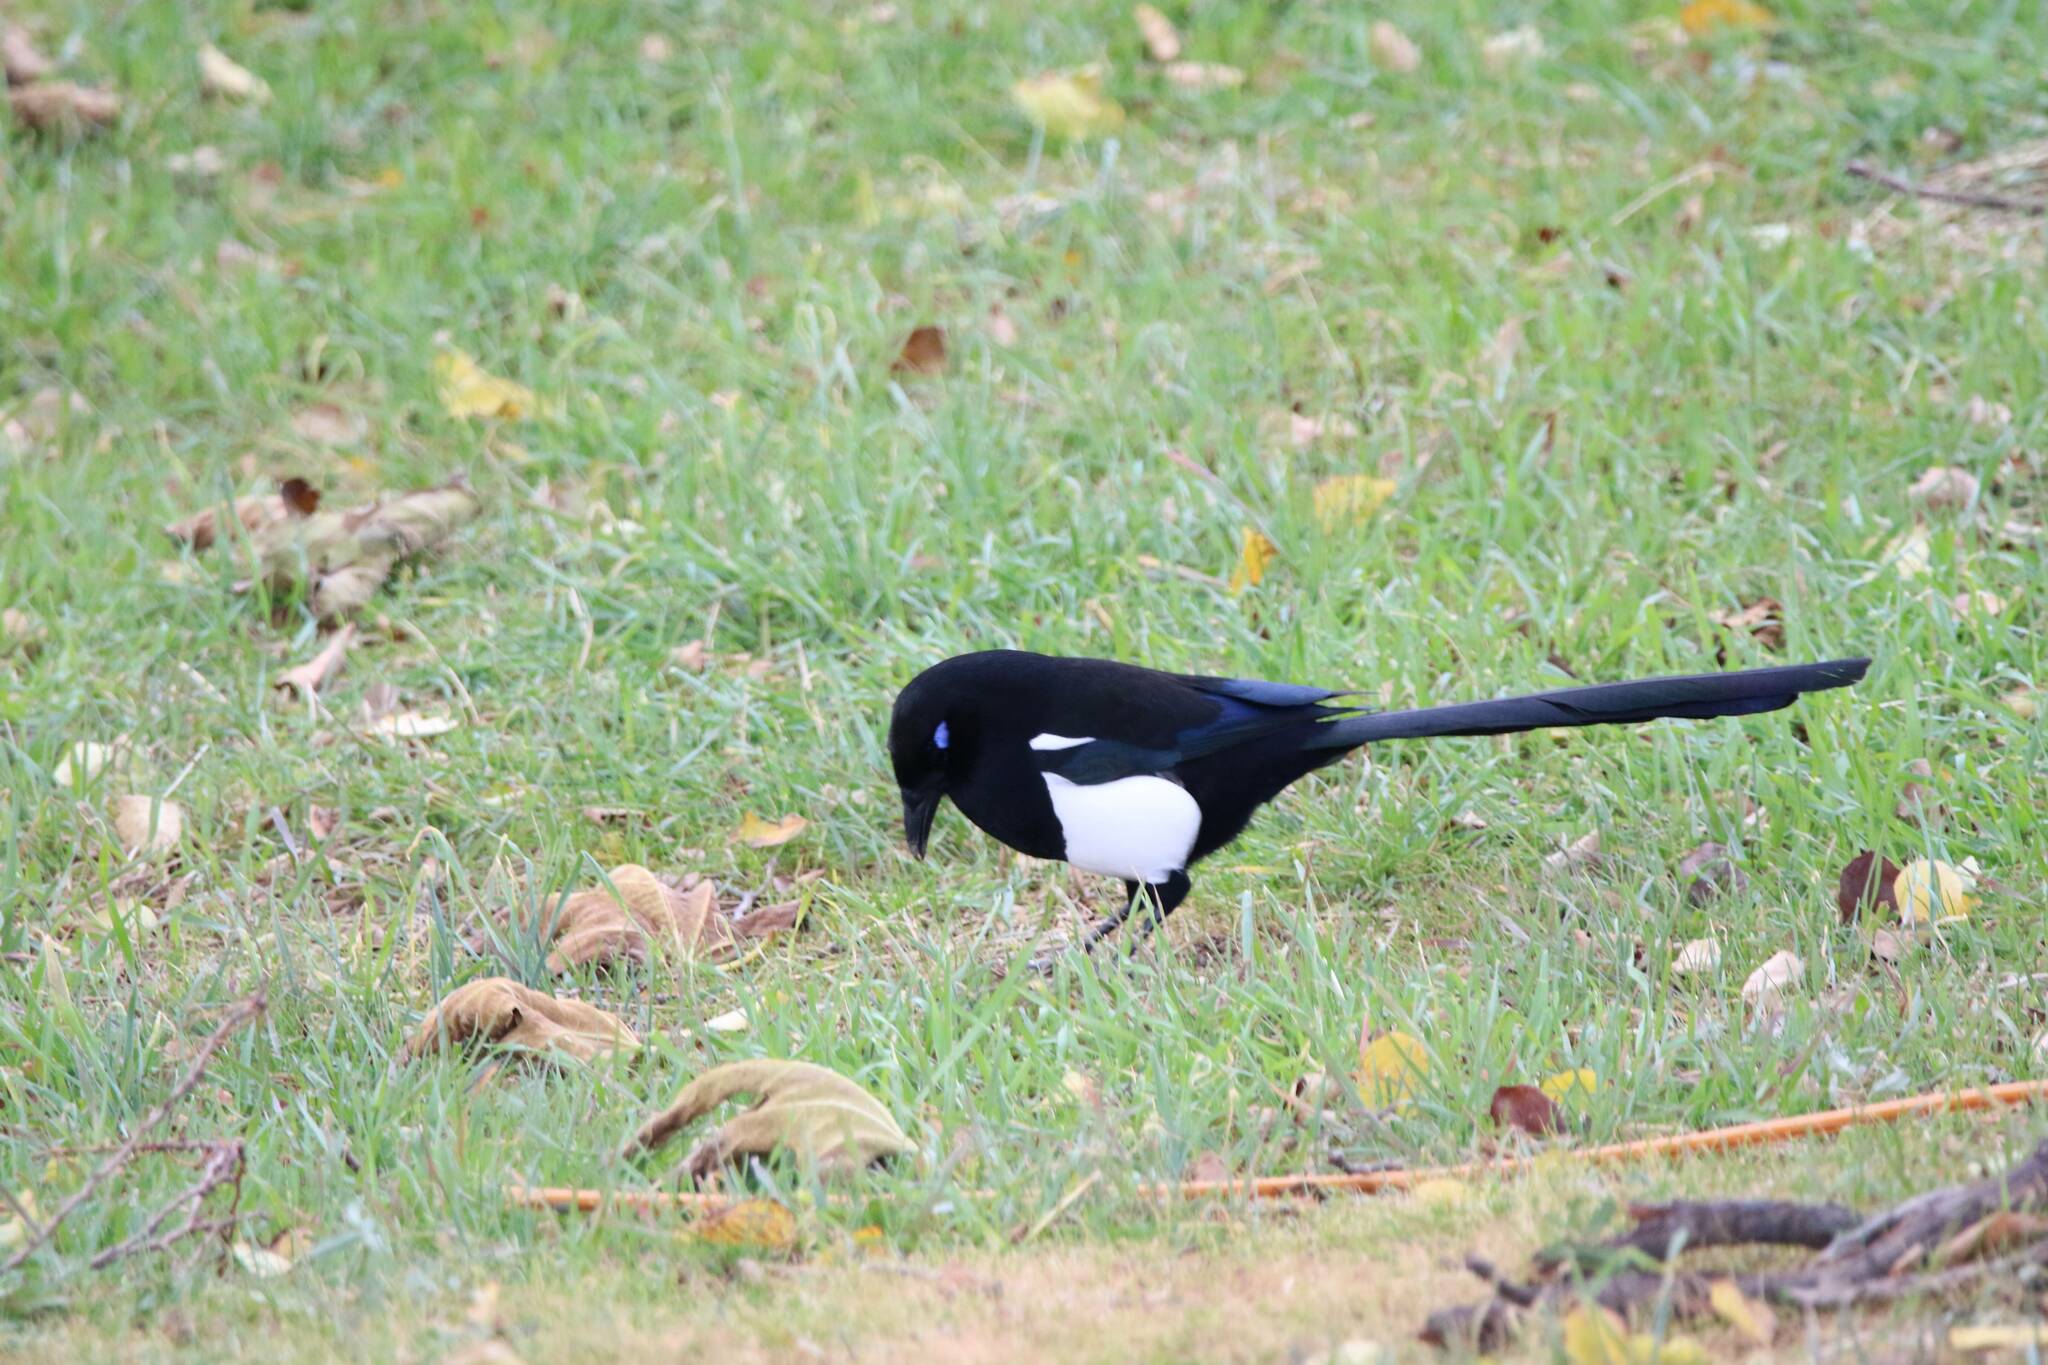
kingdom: Animalia
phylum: Chordata
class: Aves
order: Passeriformes
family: Corvidae
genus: Pica
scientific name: Pica mauritanica
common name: Maghreb magpie
